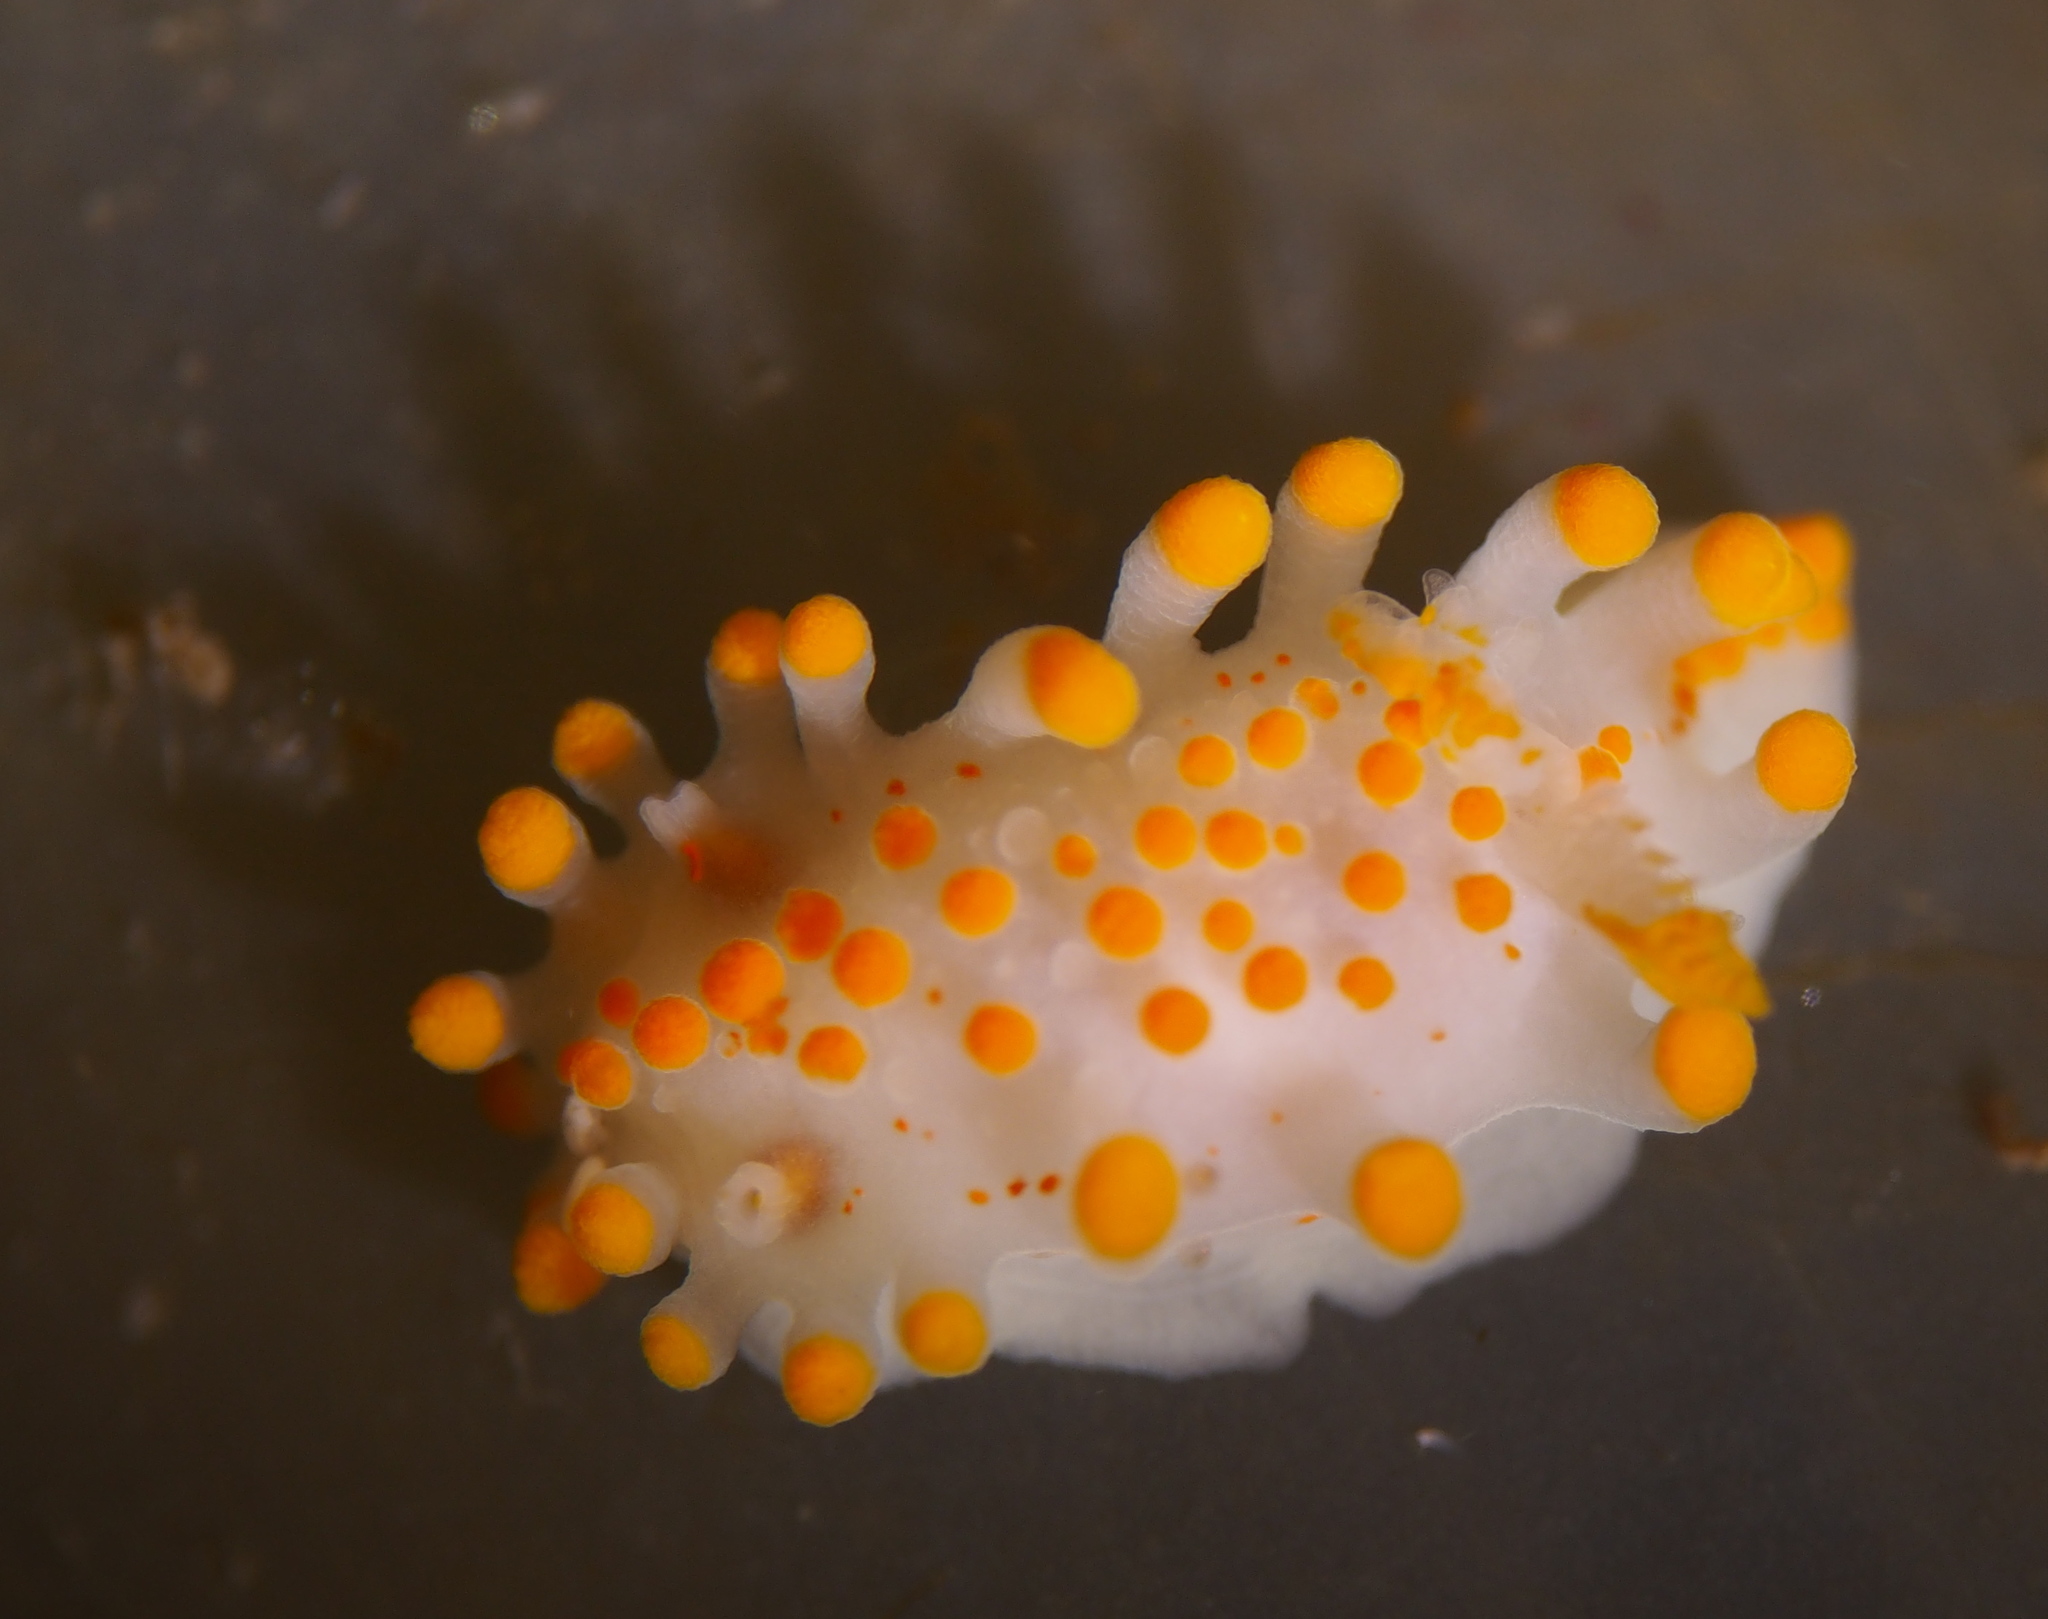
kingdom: Animalia
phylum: Mollusca
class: Gastropoda
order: Nudibranchia
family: Polyceridae
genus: Limacia
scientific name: Limacia clavigera
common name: Orange-clubbed sea slug
